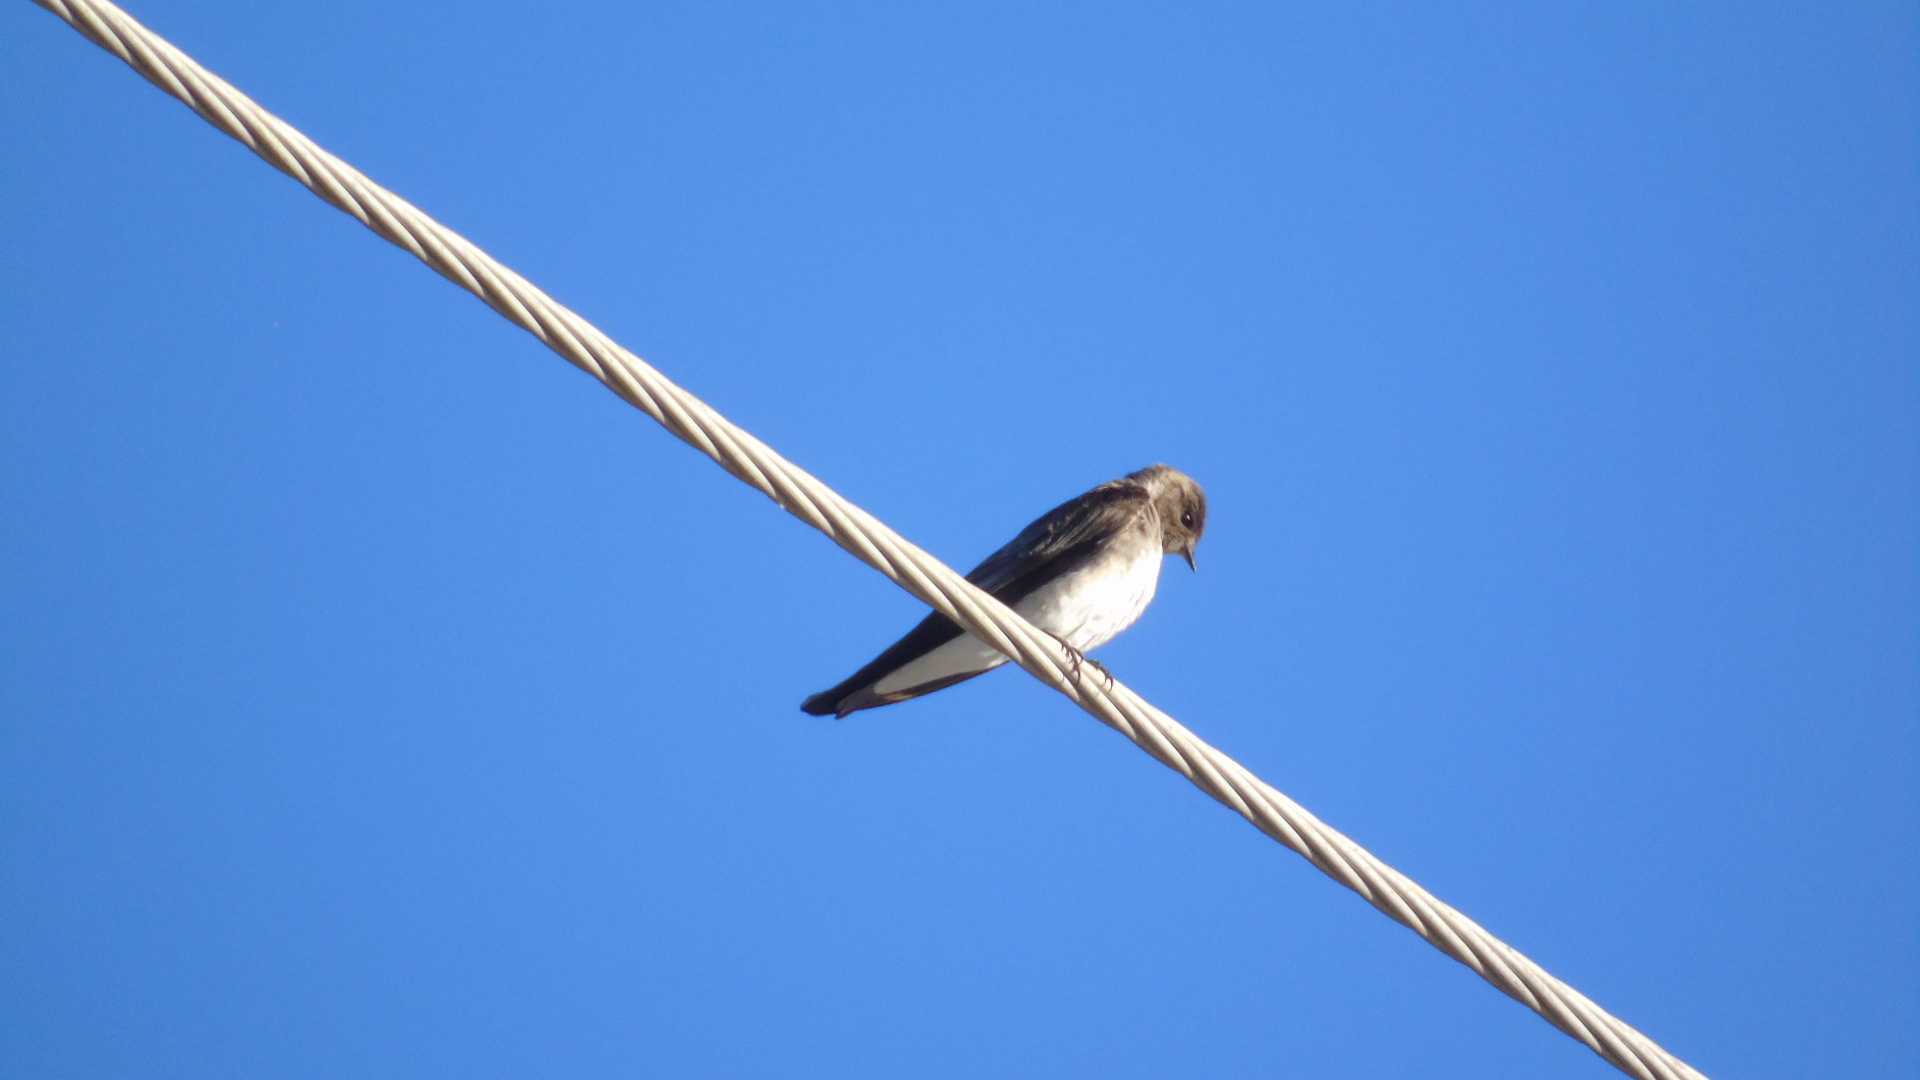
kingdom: Animalia
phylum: Chordata
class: Aves
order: Passeriformes
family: Hirundinidae
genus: Stelgidopteryx
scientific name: Stelgidopteryx serripennis
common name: Northern rough-winged swallow
